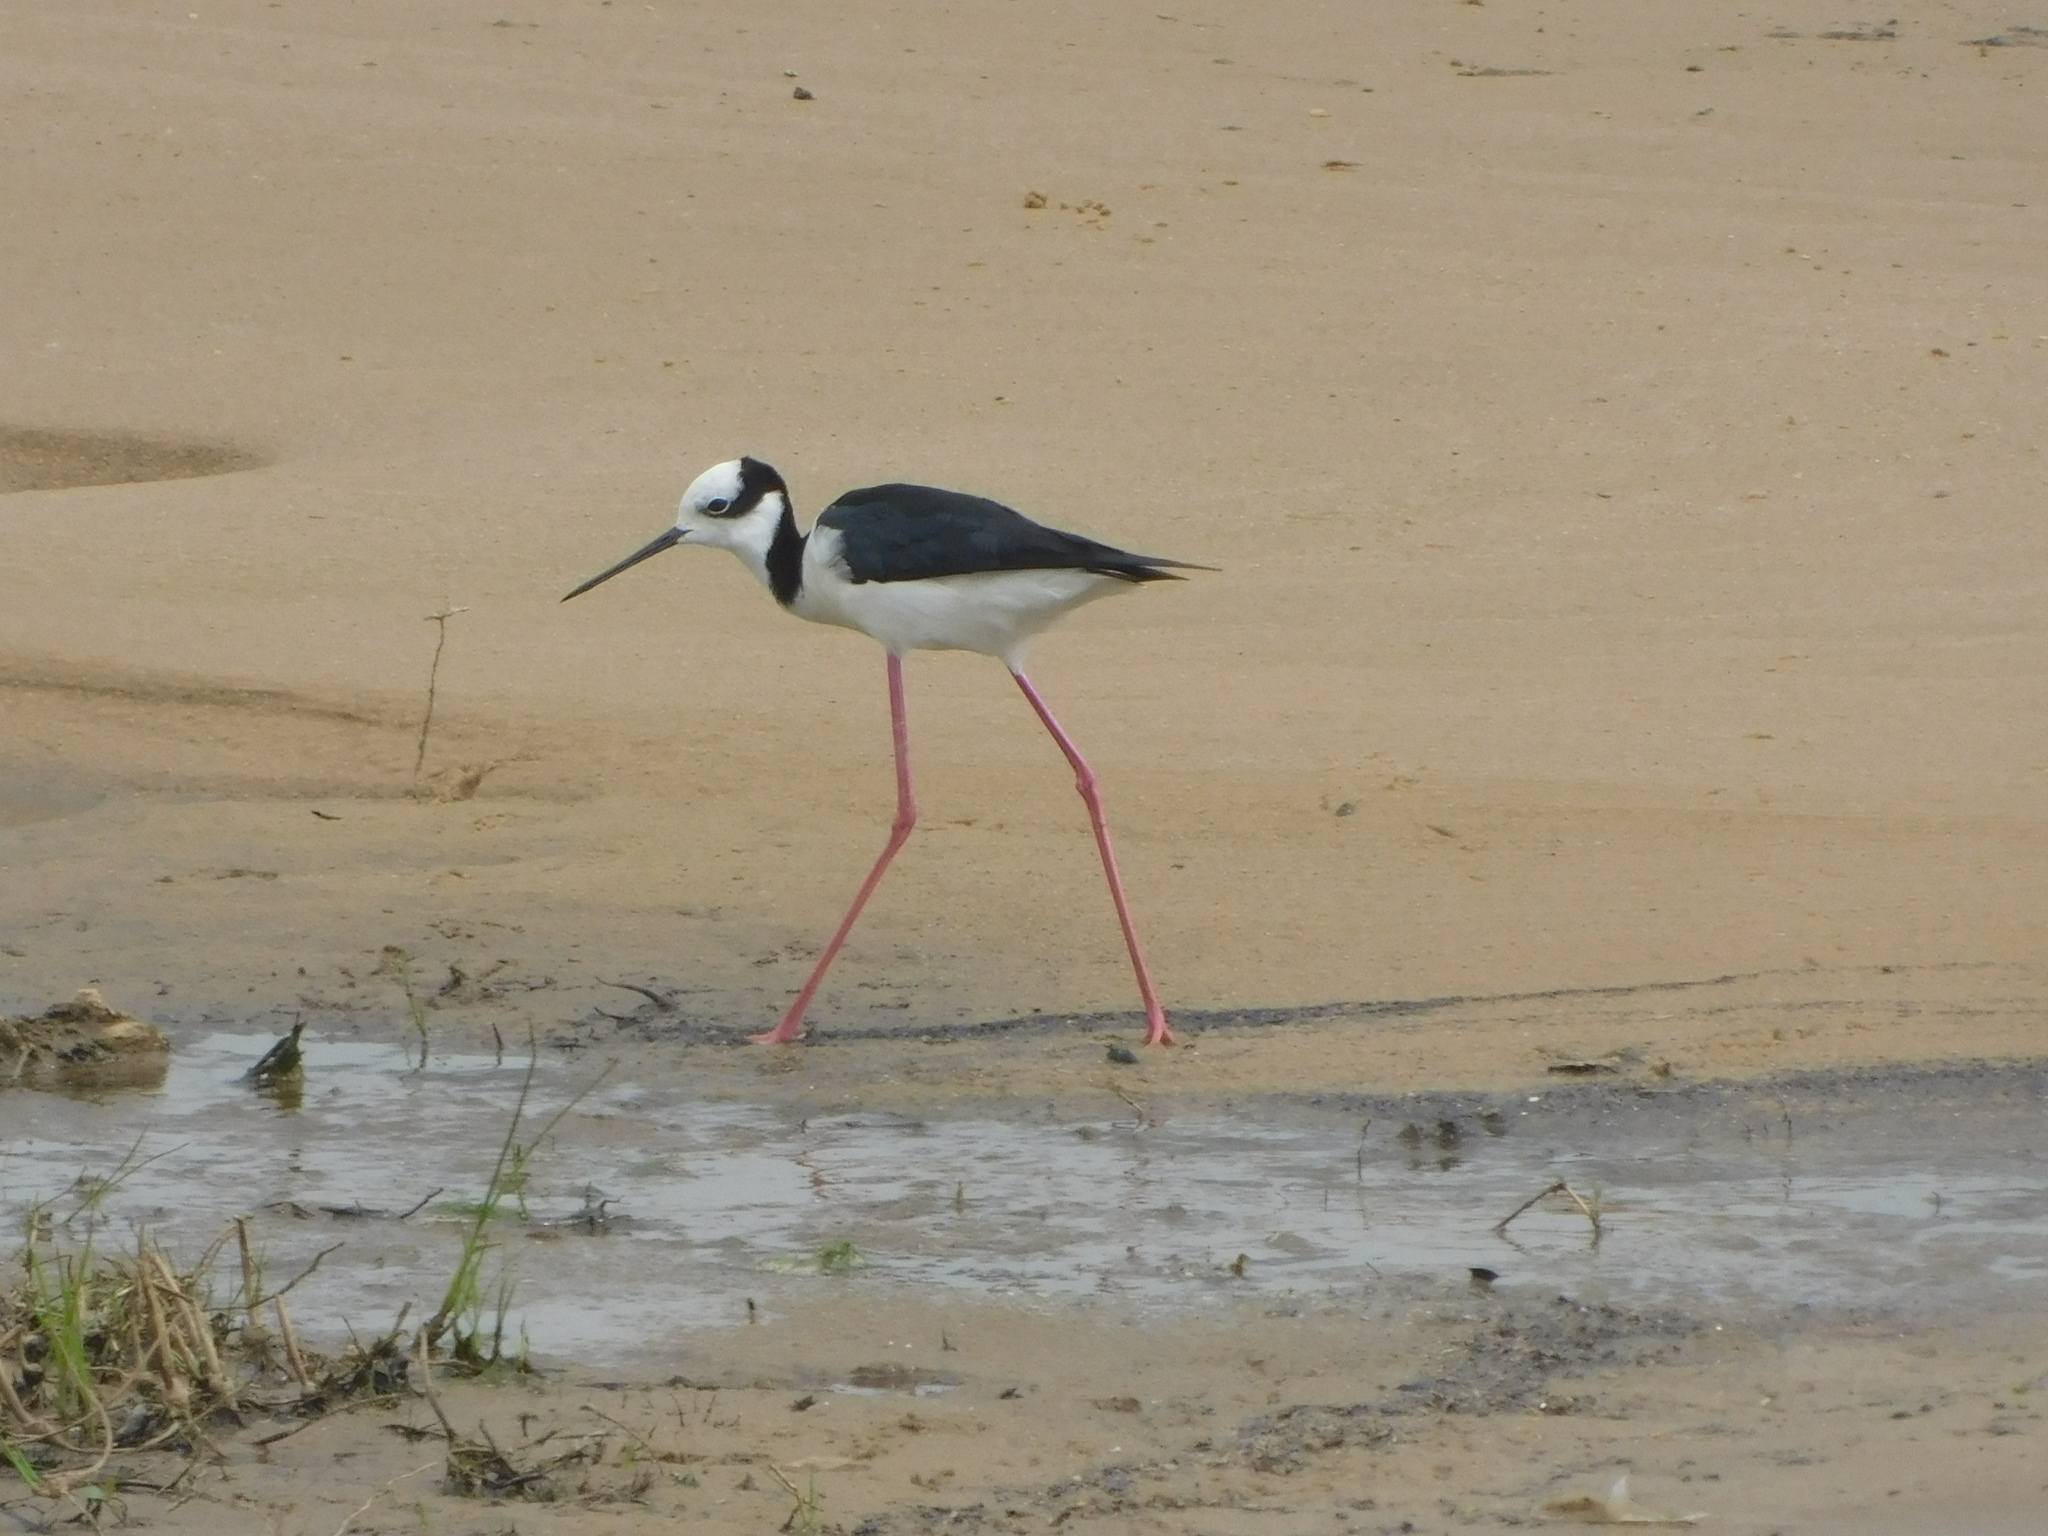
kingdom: Animalia
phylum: Chordata
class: Aves
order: Charadriiformes
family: Recurvirostridae
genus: Himantopus
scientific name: Himantopus mexicanus
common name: Black-necked stilt
